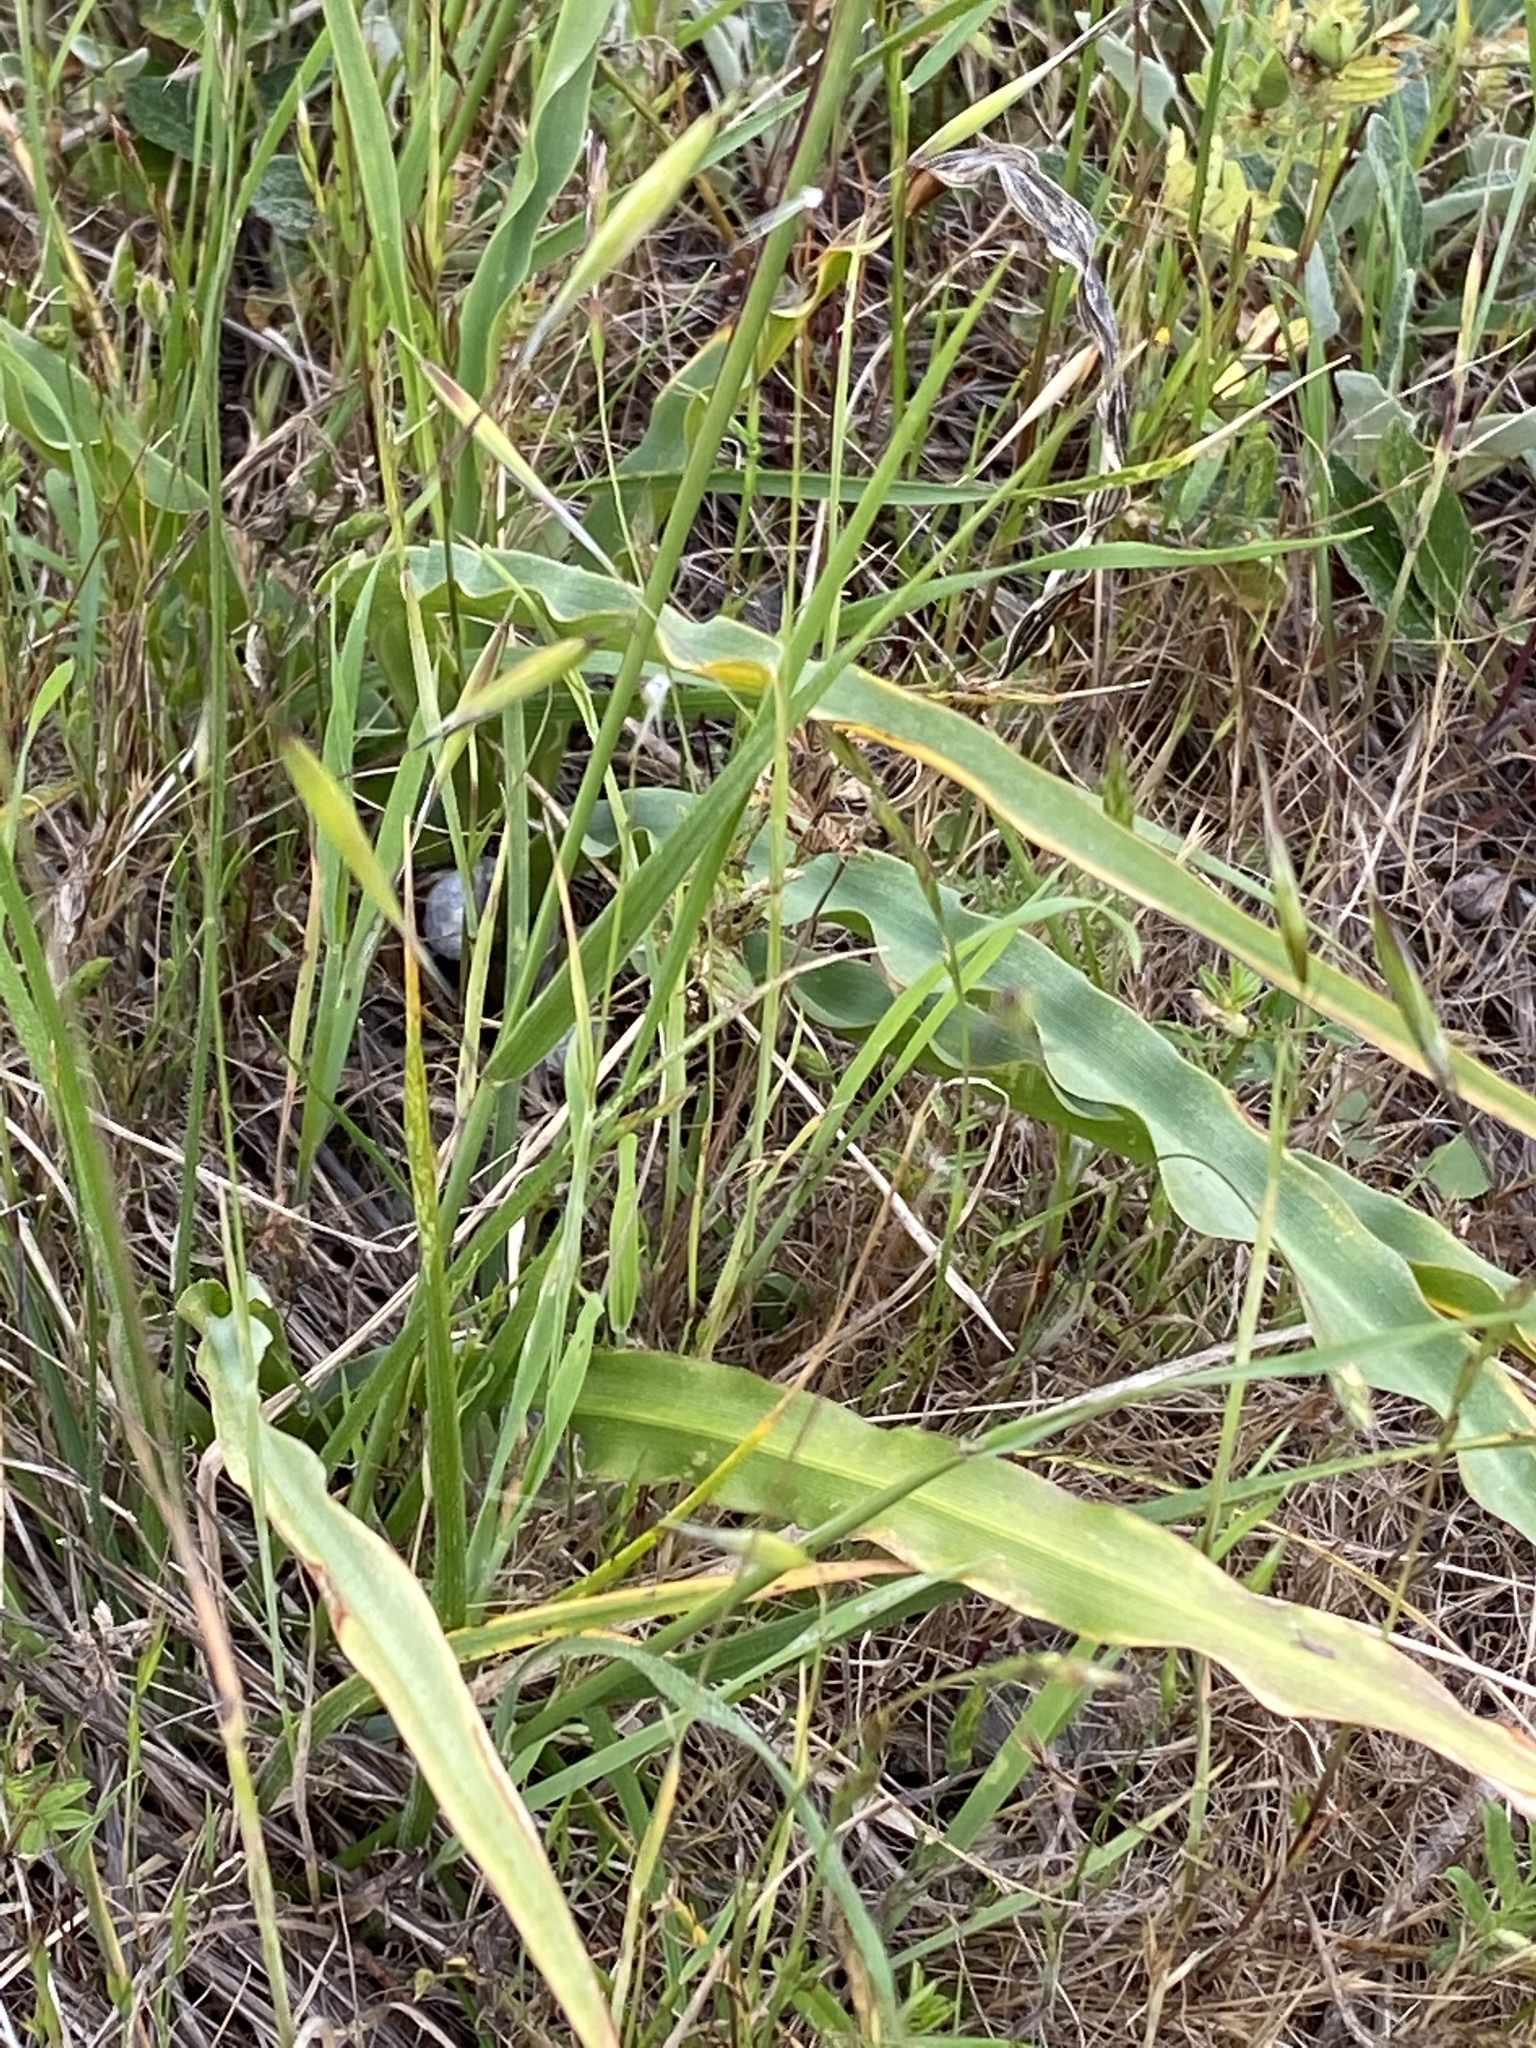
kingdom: Plantae
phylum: Tracheophyta
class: Liliopsida
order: Asparagales
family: Asparagaceae
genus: Chlorogalum
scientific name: Chlorogalum pomeridianum
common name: Amole
